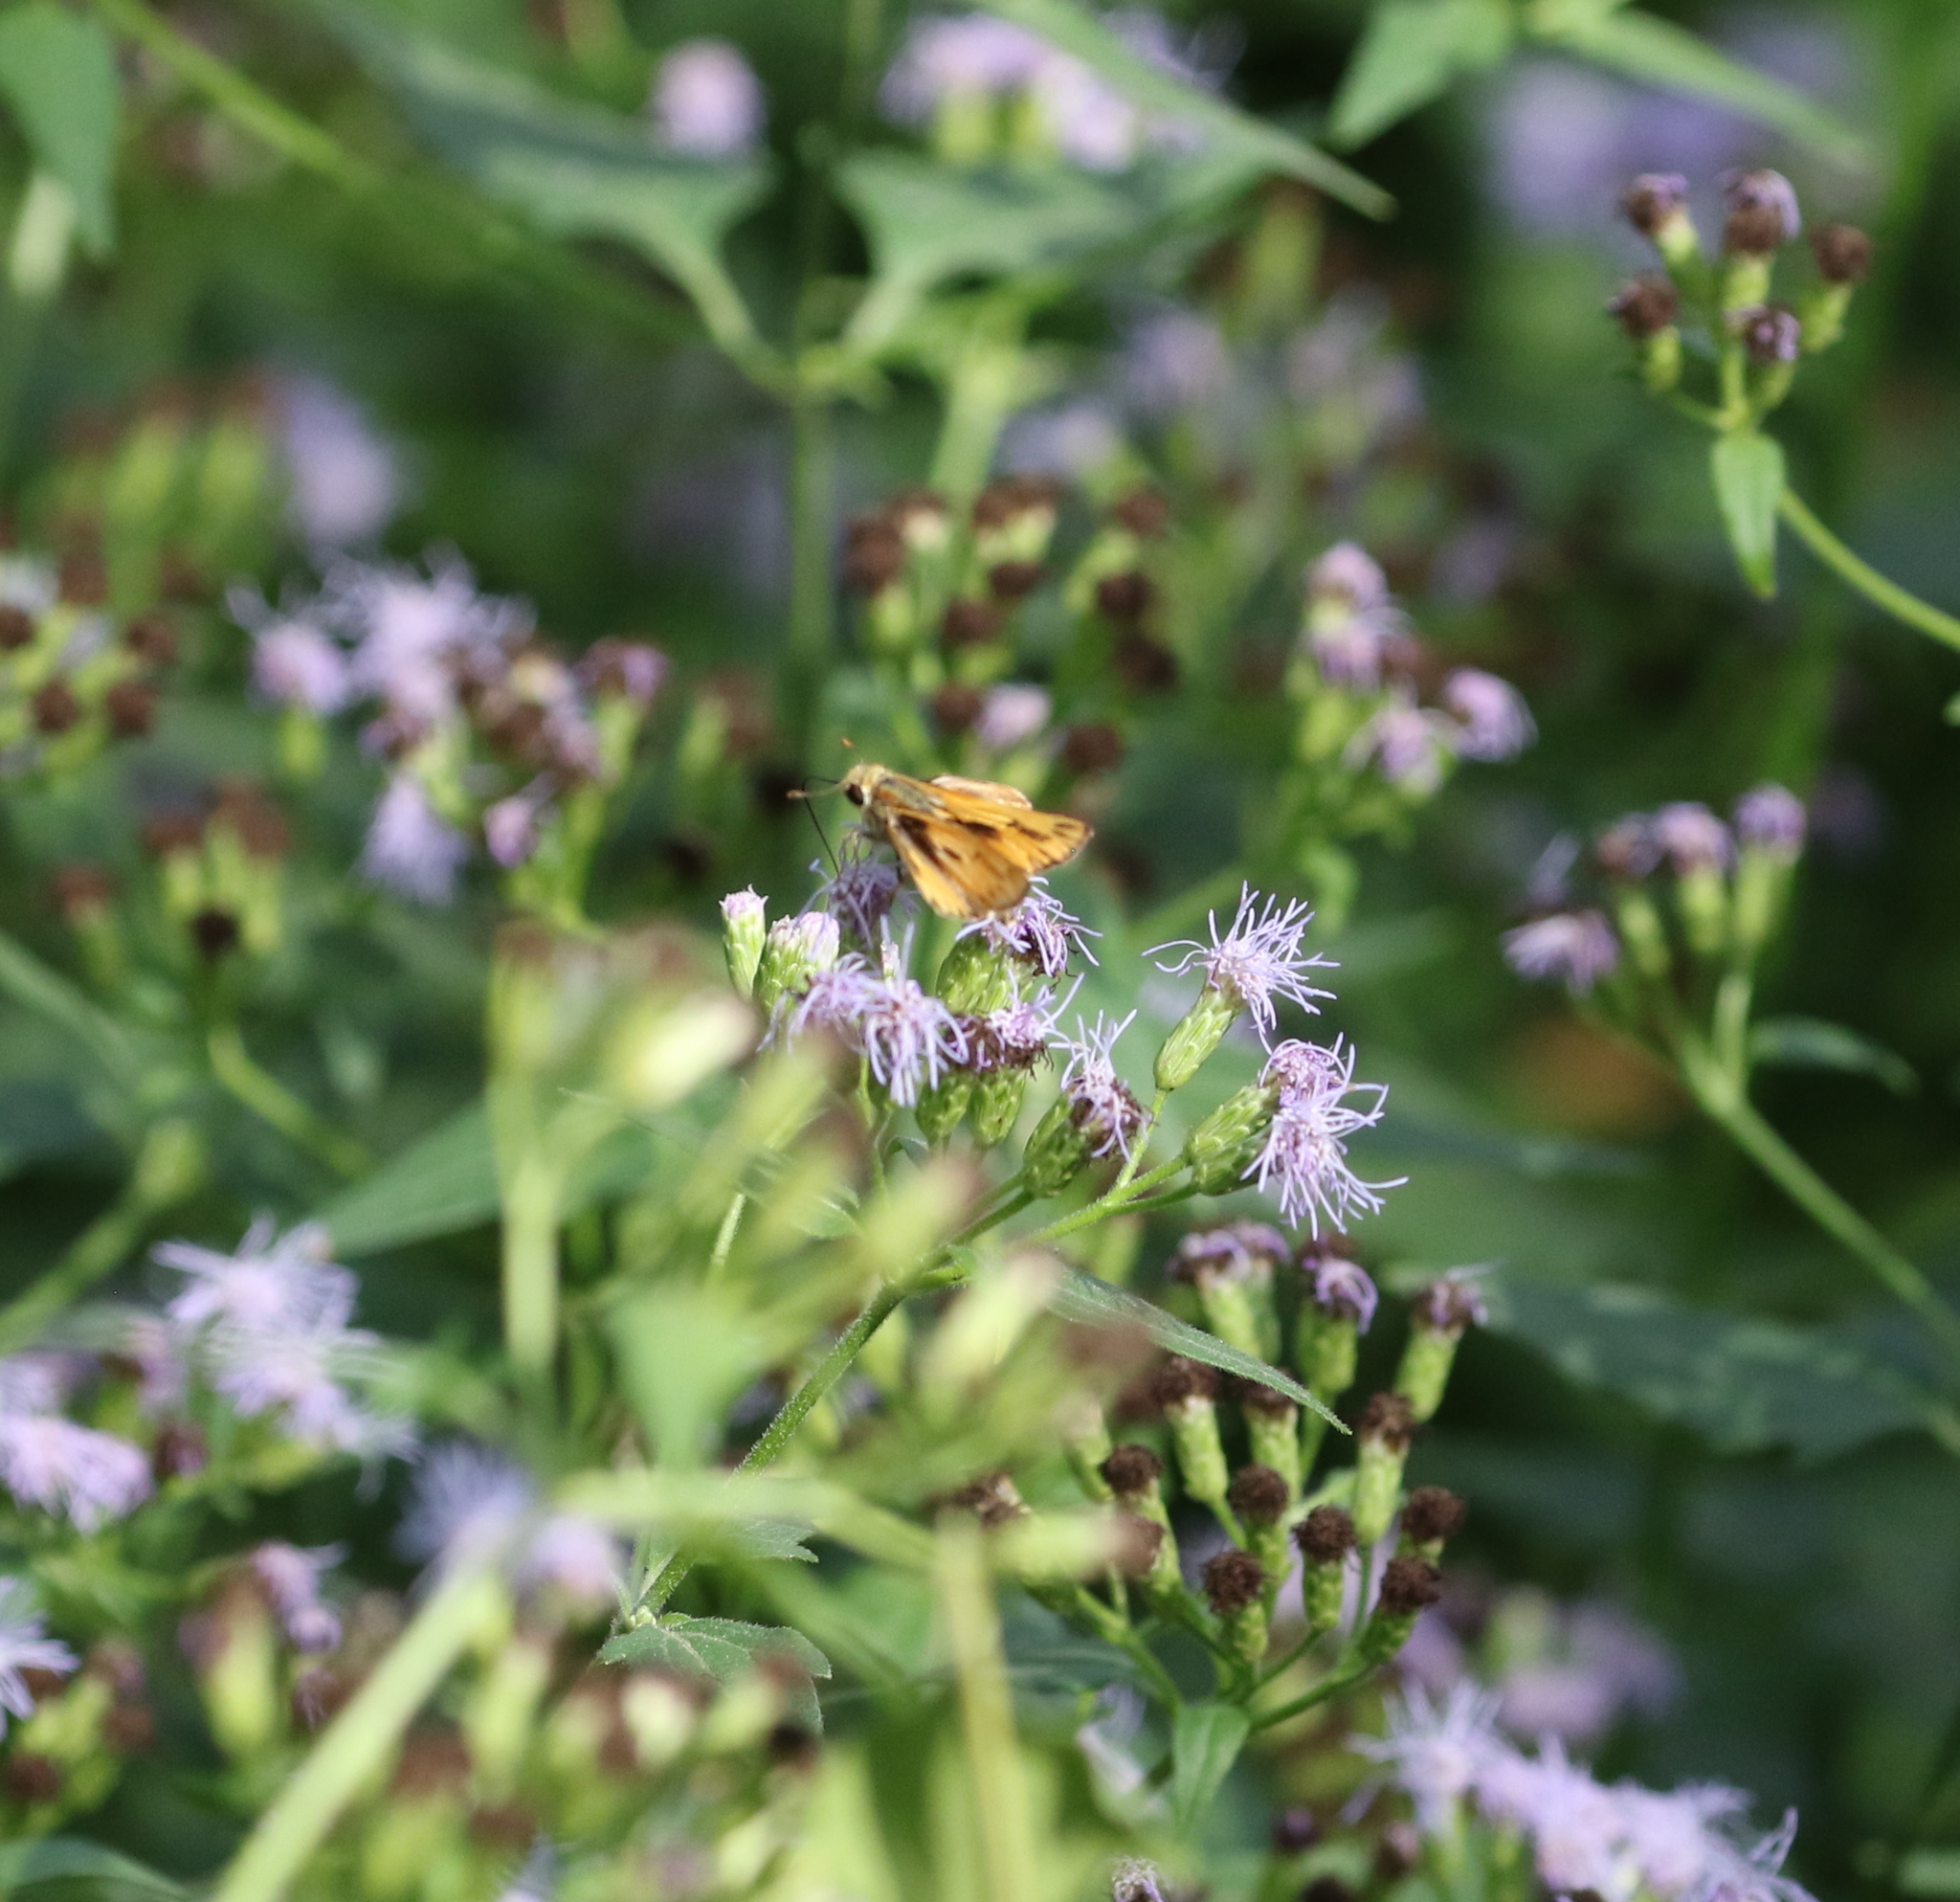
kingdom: Animalia
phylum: Arthropoda
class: Insecta
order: Lepidoptera
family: Hesperiidae
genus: Hylephila
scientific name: Hylephila phyleus
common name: Fiery skipper
